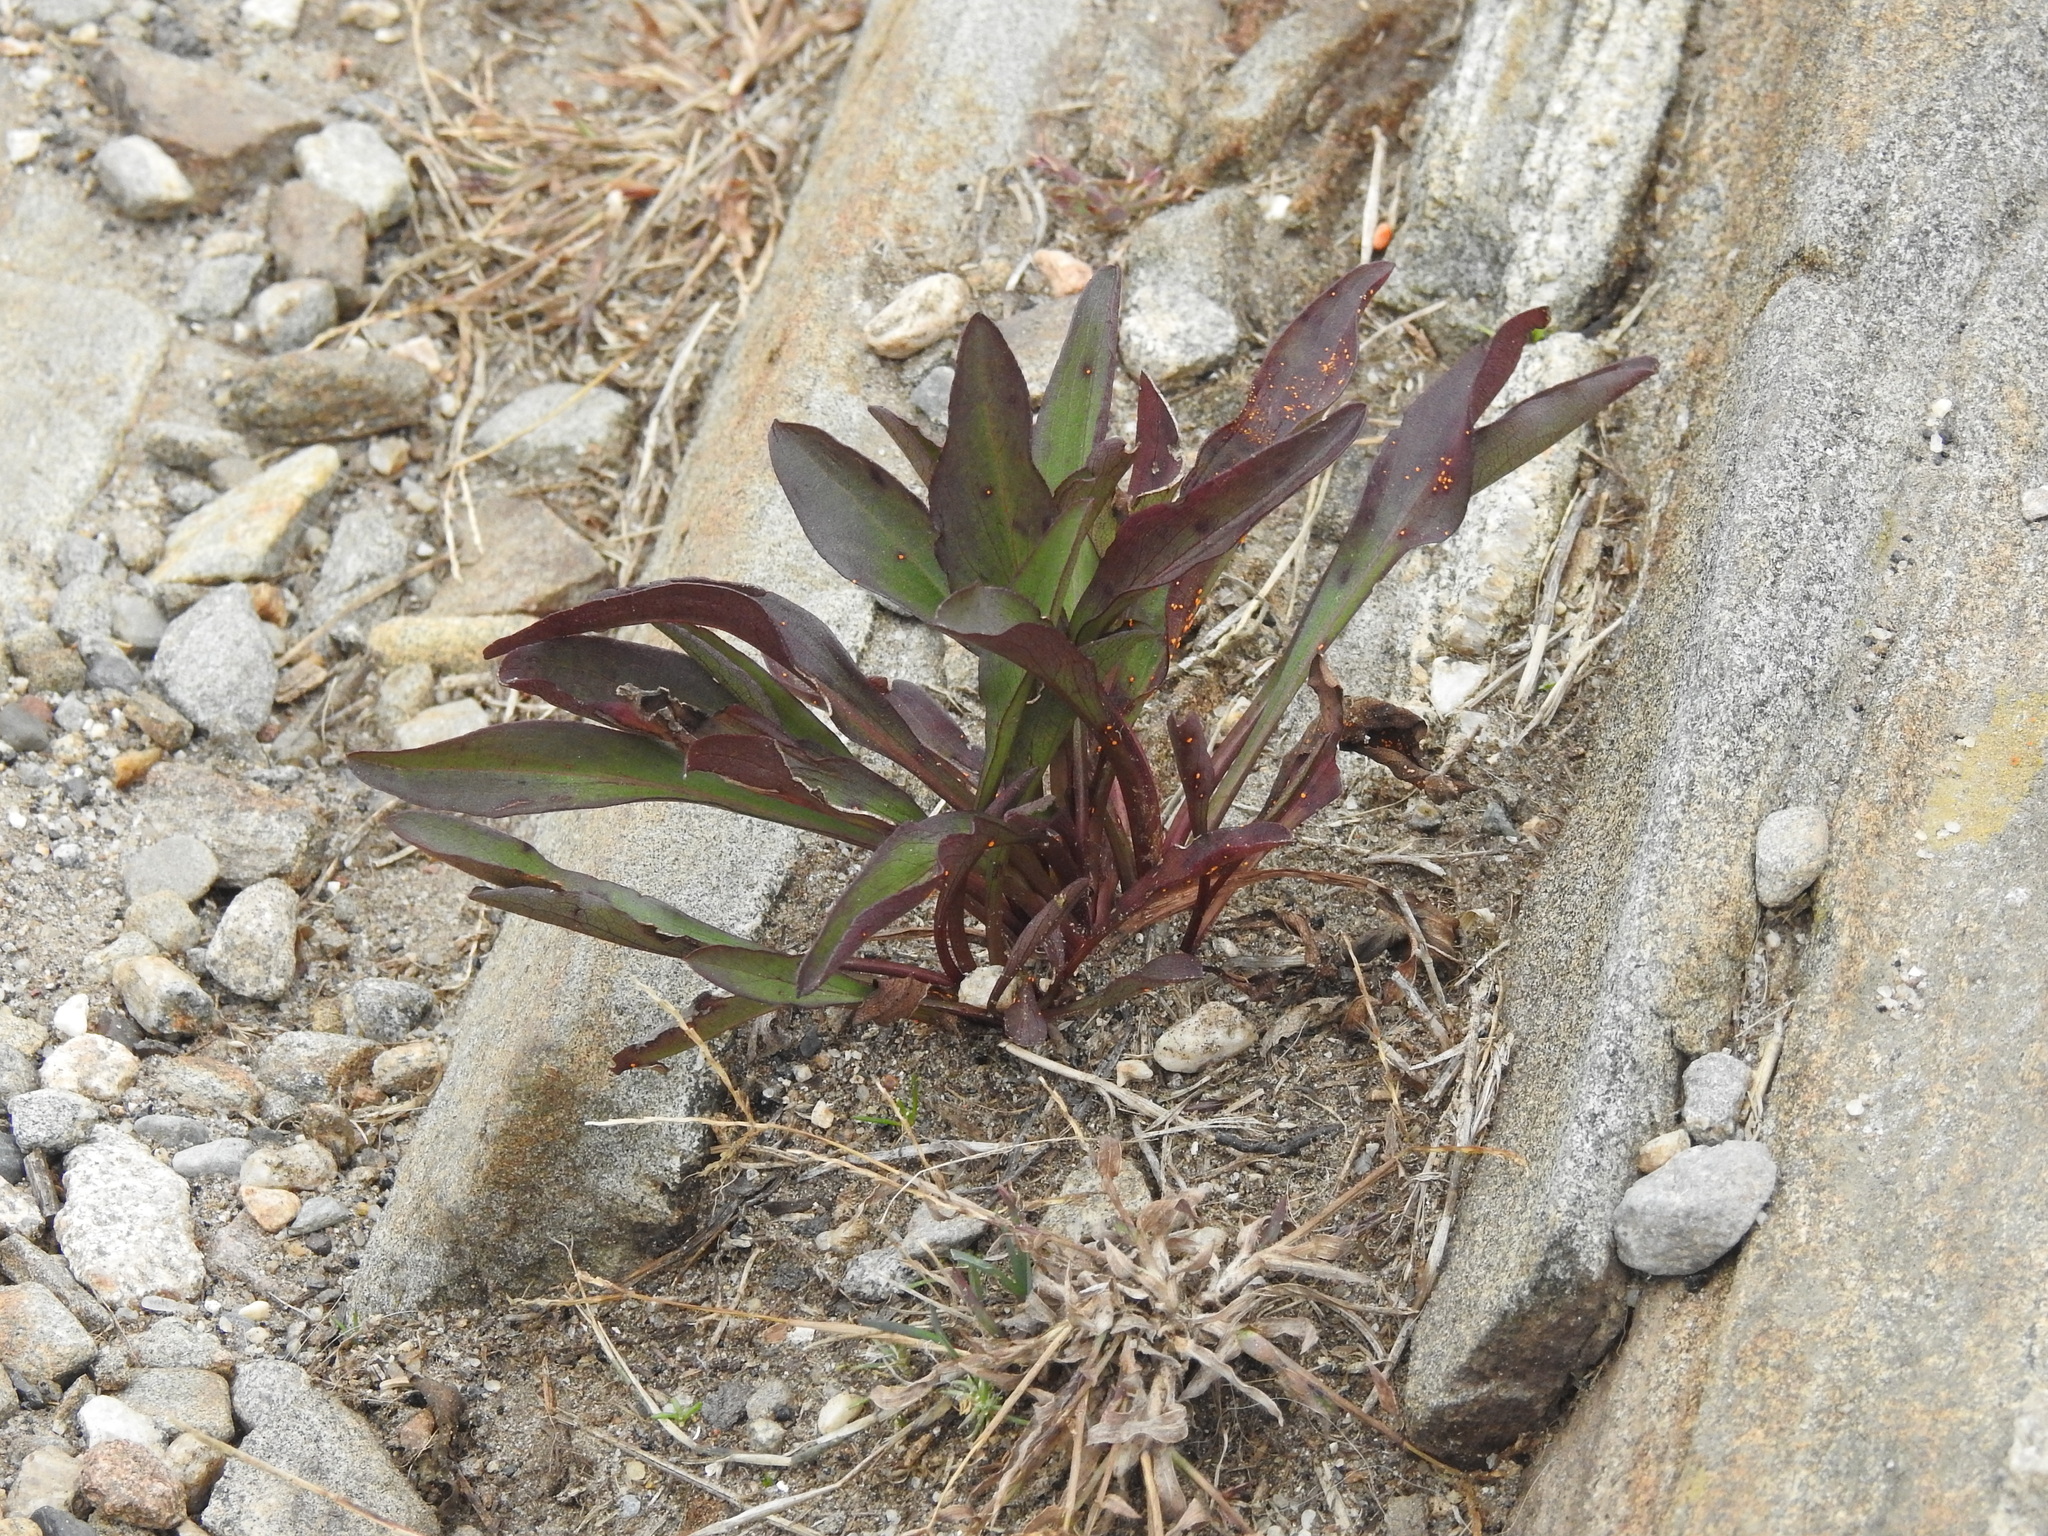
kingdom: Plantae
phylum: Tracheophyta
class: Magnoliopsida
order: Asterales
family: Asteraceae
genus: Solidago
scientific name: Solidago sempervirens
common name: Salt-marsh goldenrod
